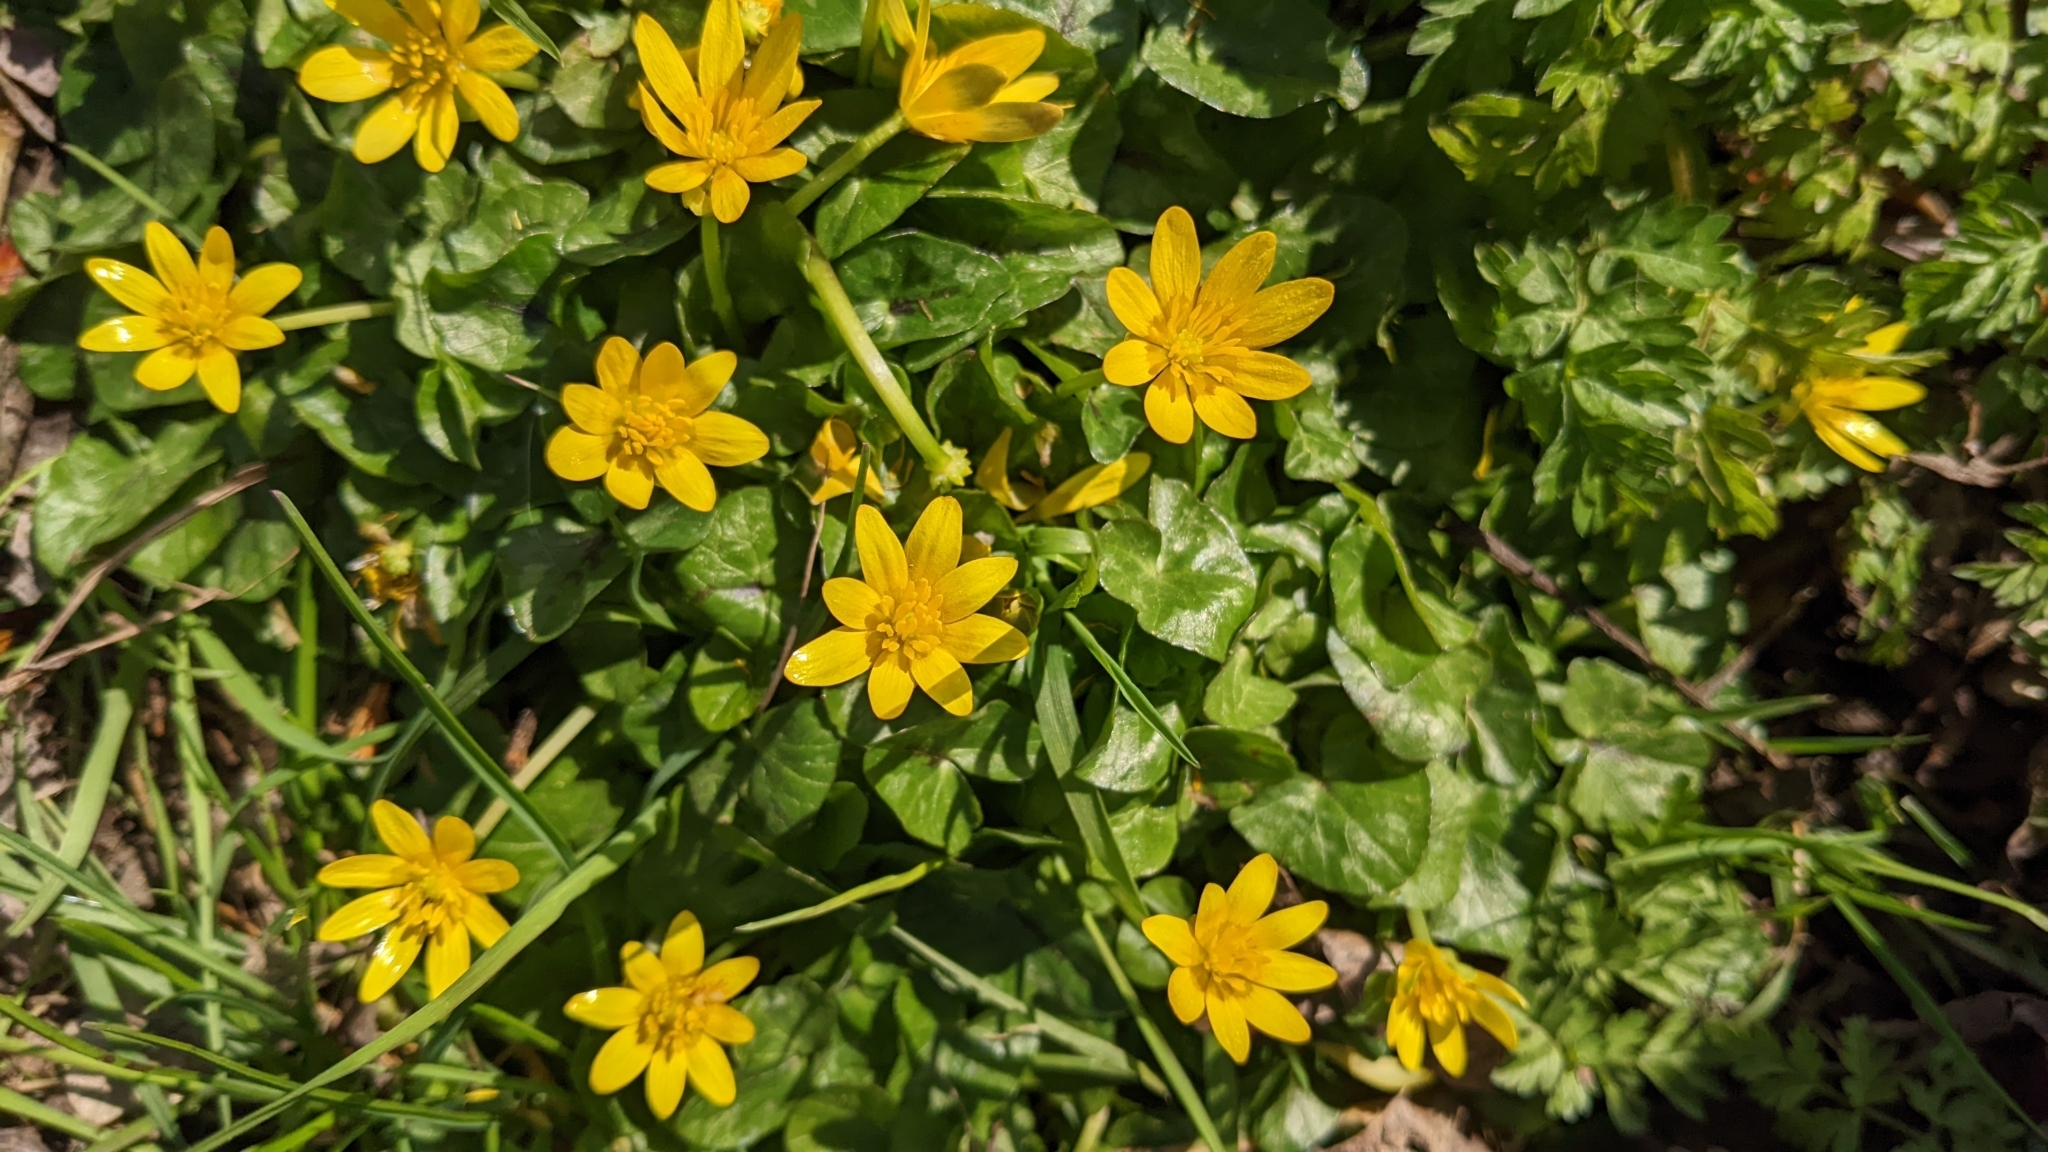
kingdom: Plantae
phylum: Tracheophyta
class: Magnoliopsida
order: Ranunculales
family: Ranunculaceae
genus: Ficaria
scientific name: Ficaria verna
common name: Lesser celandine
